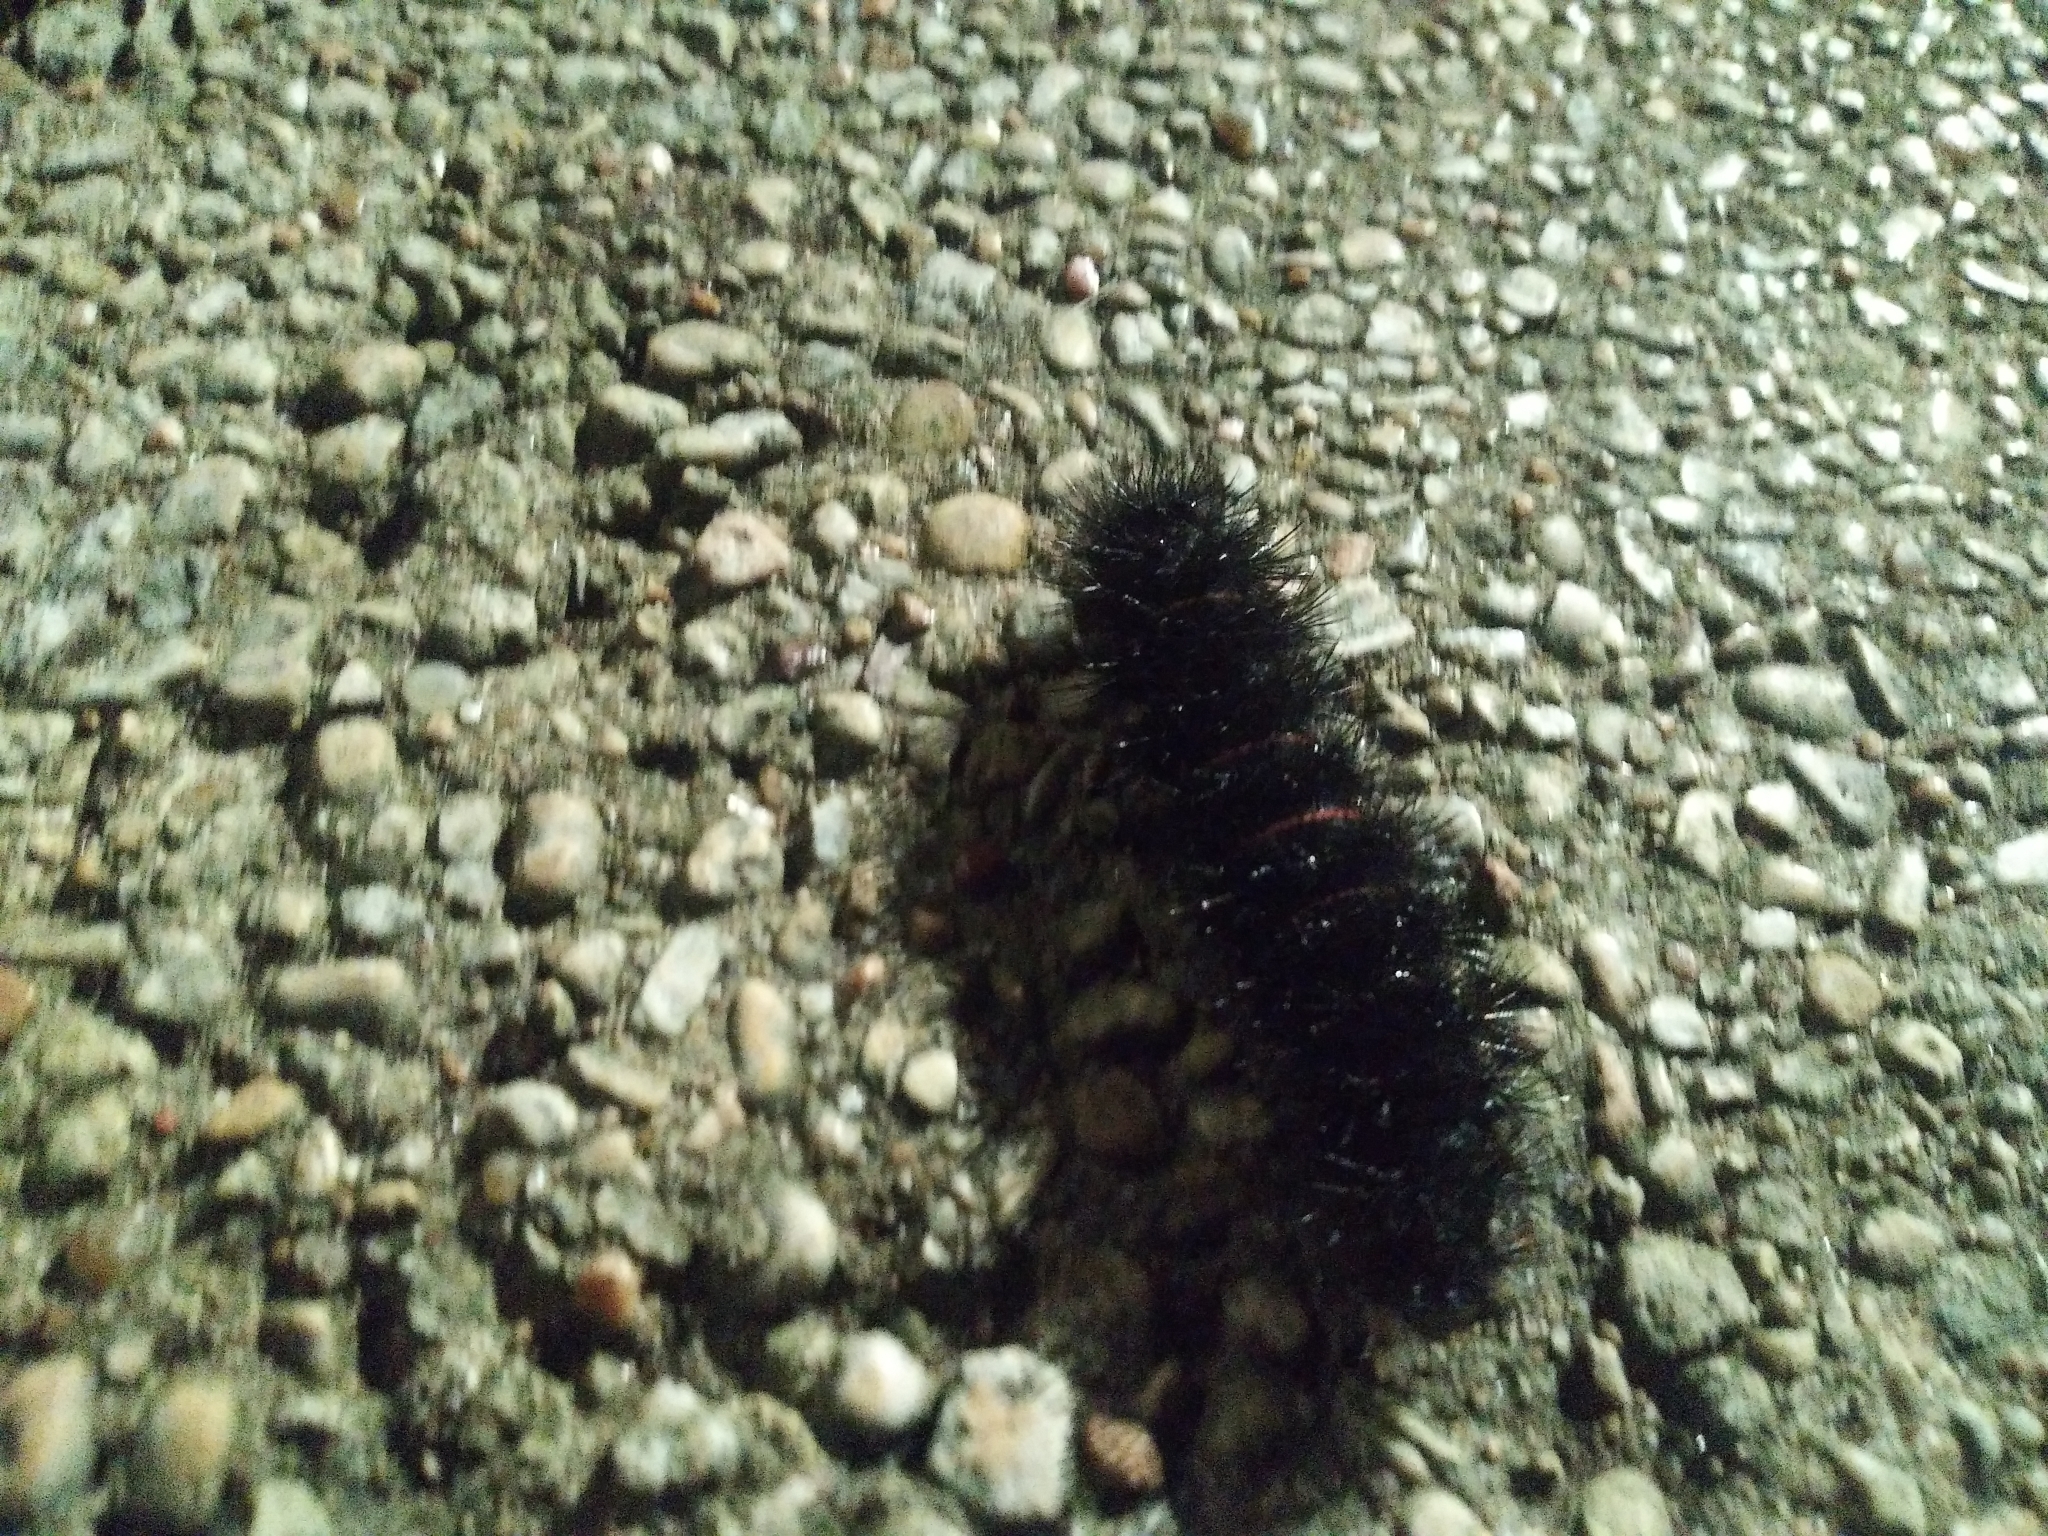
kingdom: Animalia
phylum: Arthropoda
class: Insecta
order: Lepidoptera
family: Erebidae
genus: Hypercompe
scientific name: Hypercompe scribonia
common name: Giant leopard moth
